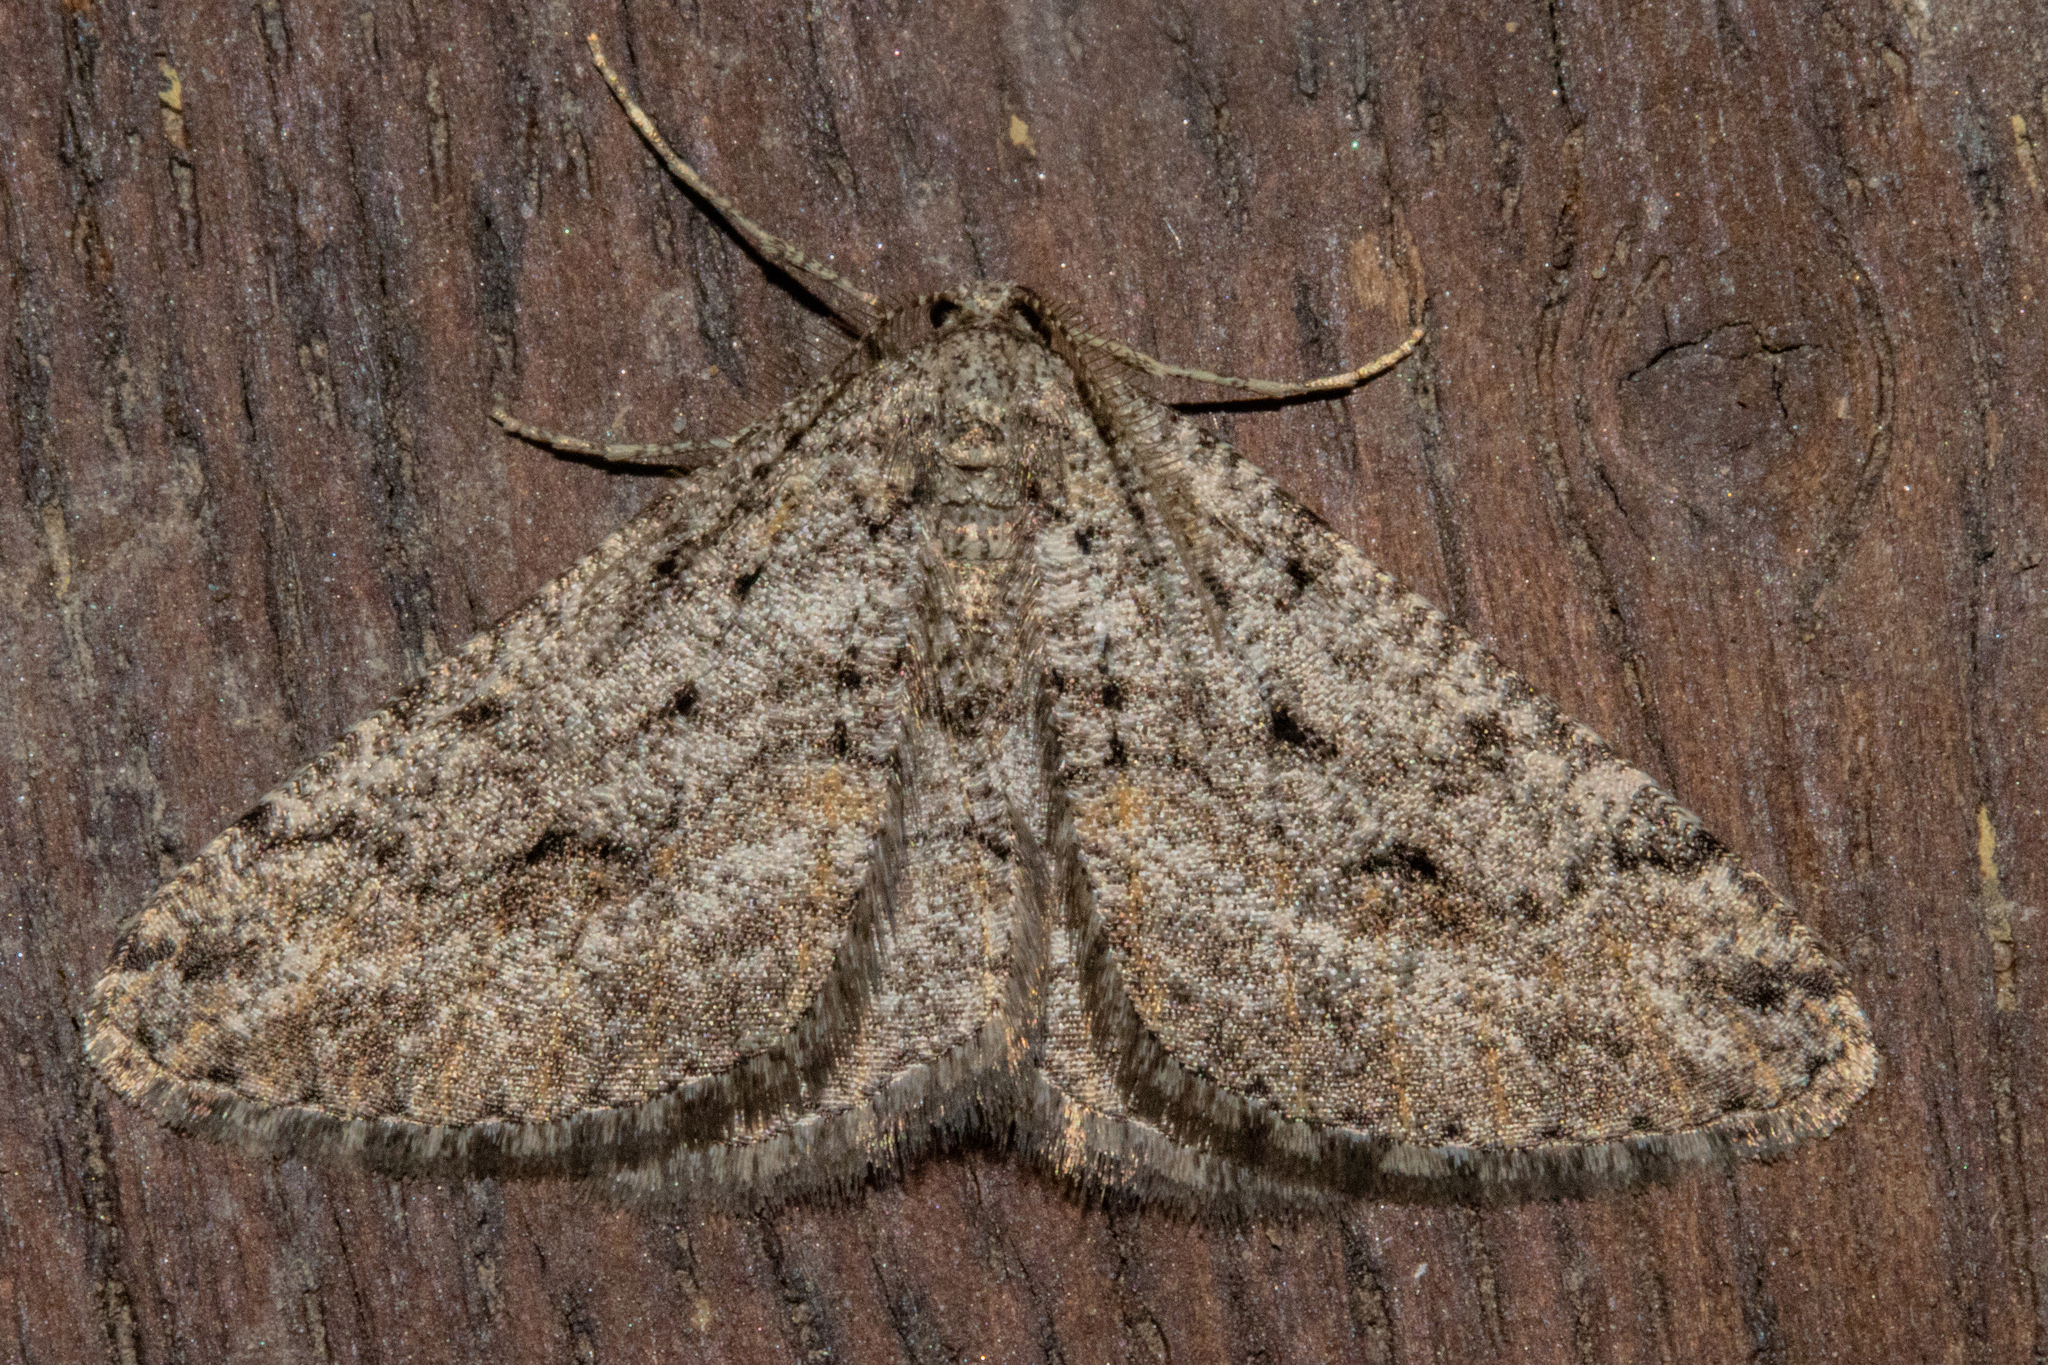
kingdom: Animalia
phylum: Arthropoda
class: Insecta
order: Lepidoptera
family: Geometridae
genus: Zermizinga
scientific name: Zermizinga indocilisaria
